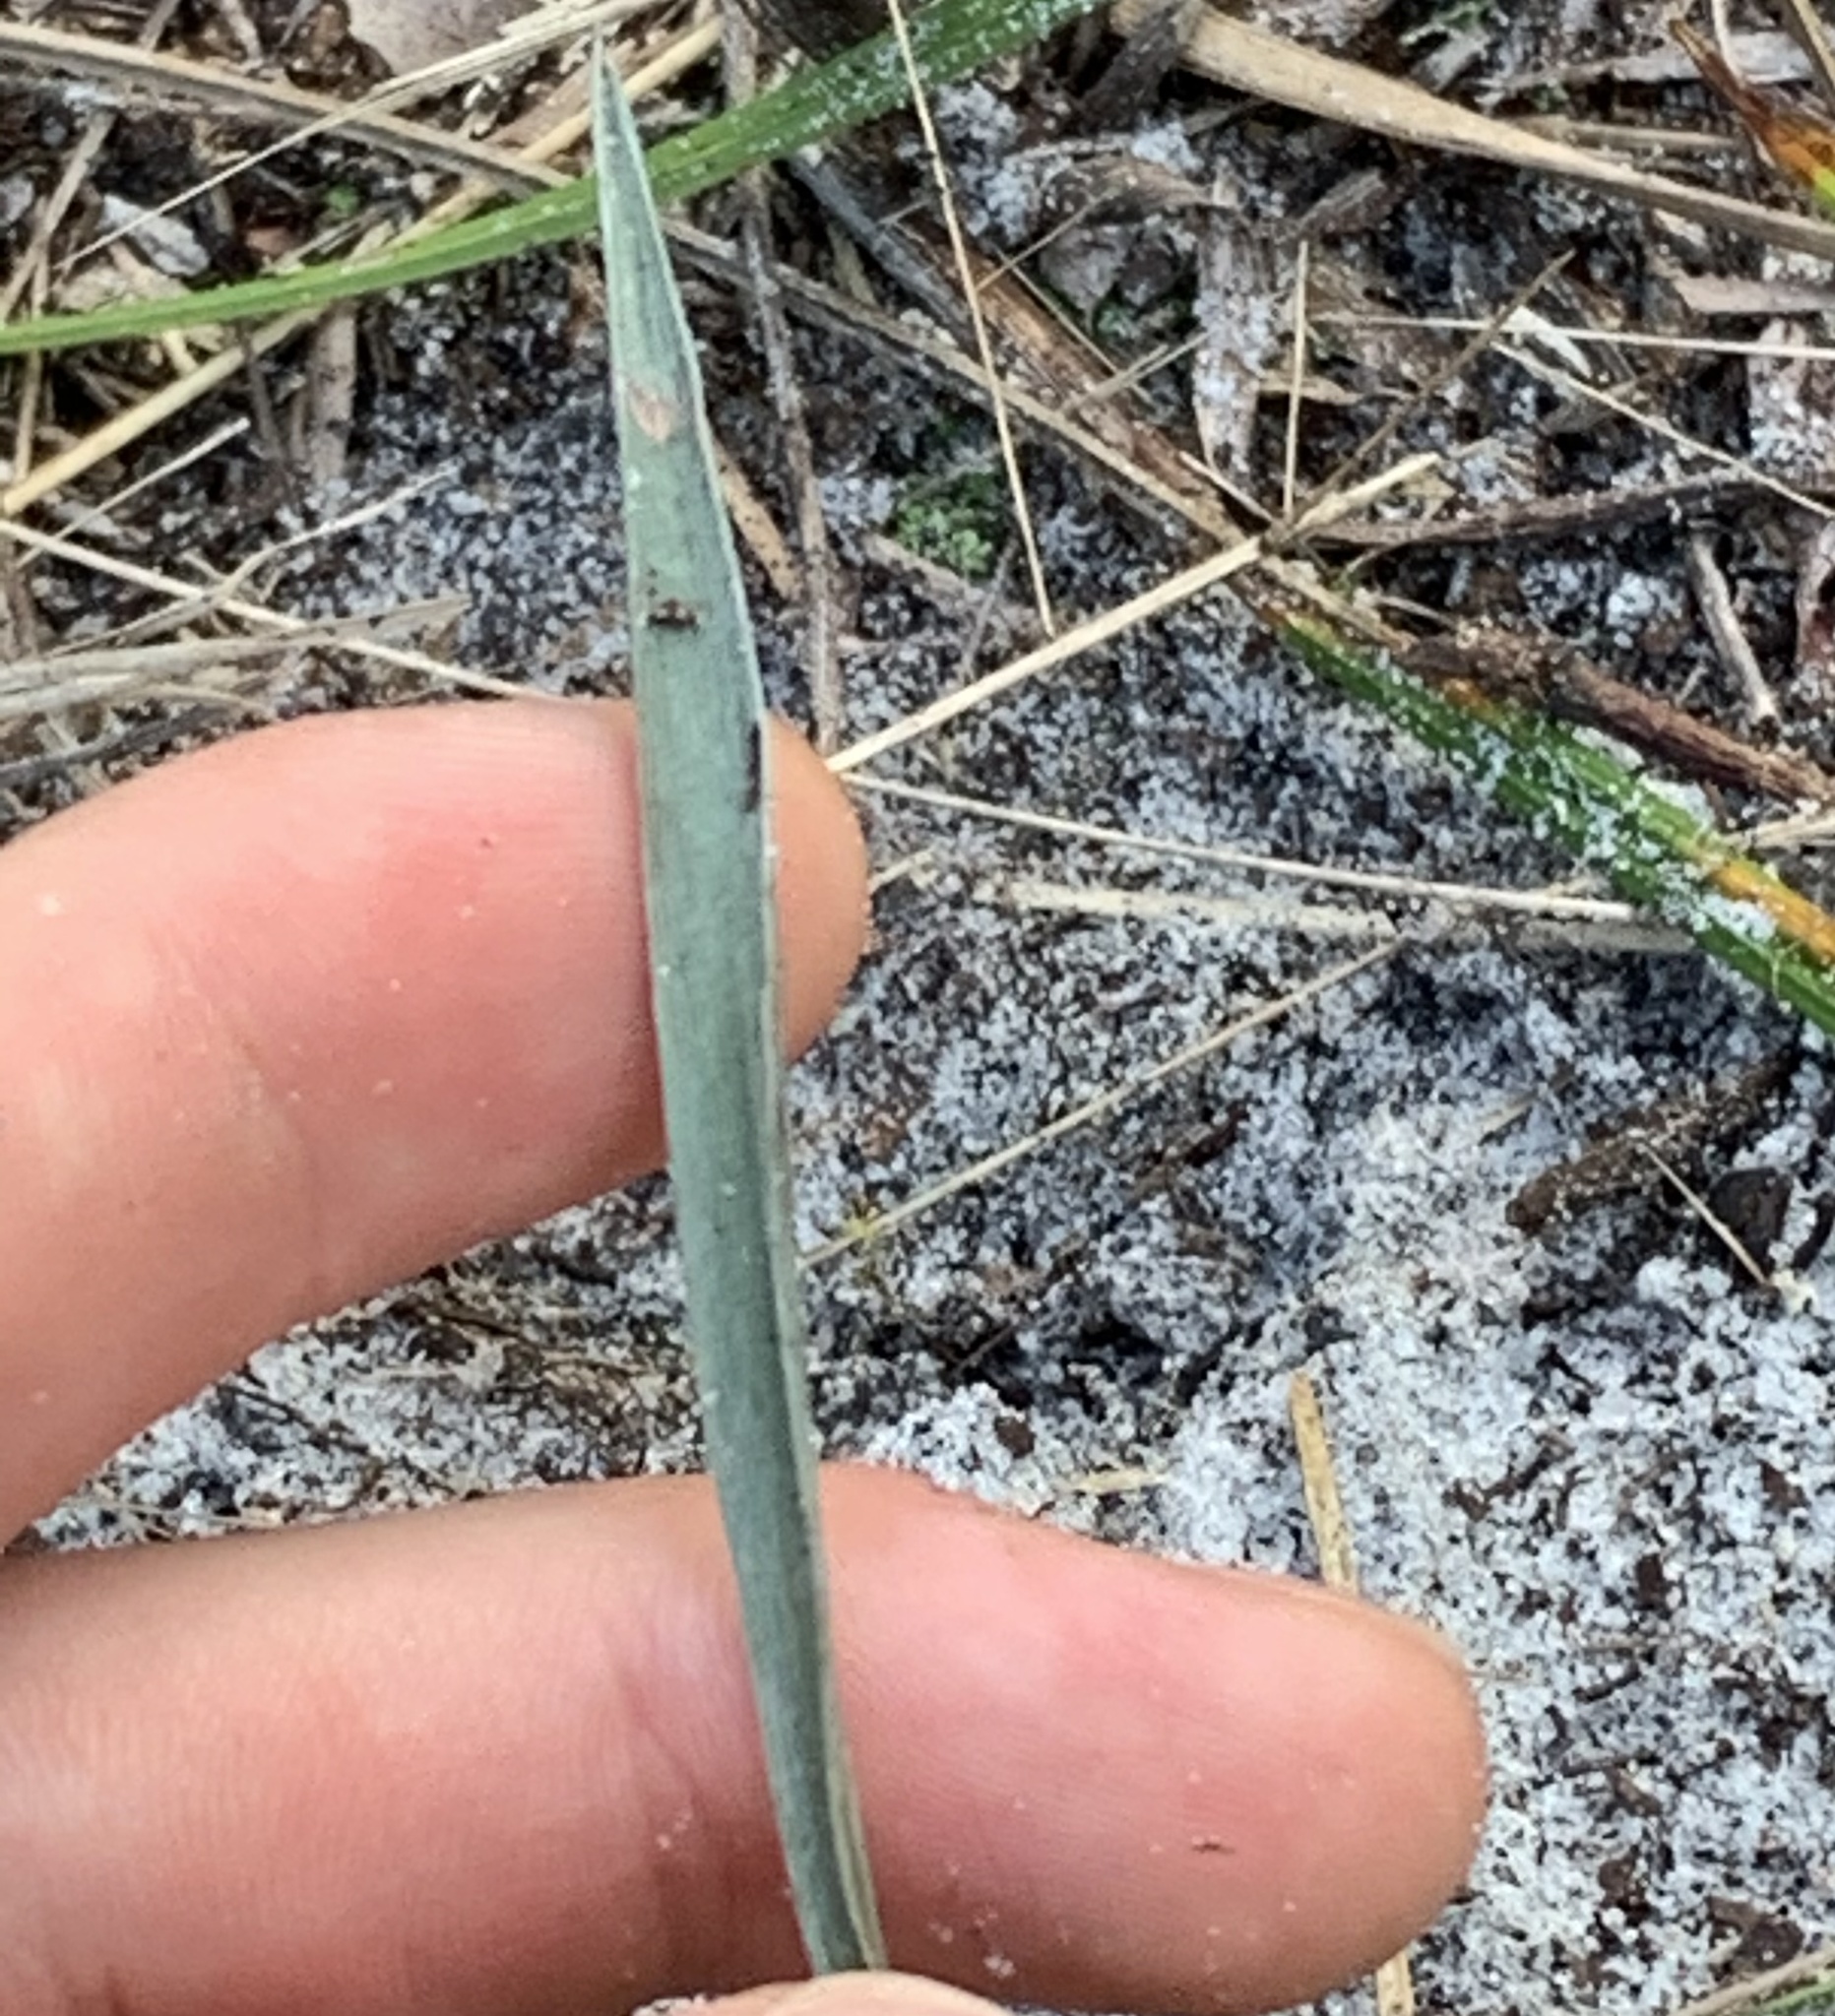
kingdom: Plantae
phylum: Tracheophyta
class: Magnoliopsida
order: Asterales
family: Asteraceae
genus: Pityopsis
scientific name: Pityopsis tracyi
